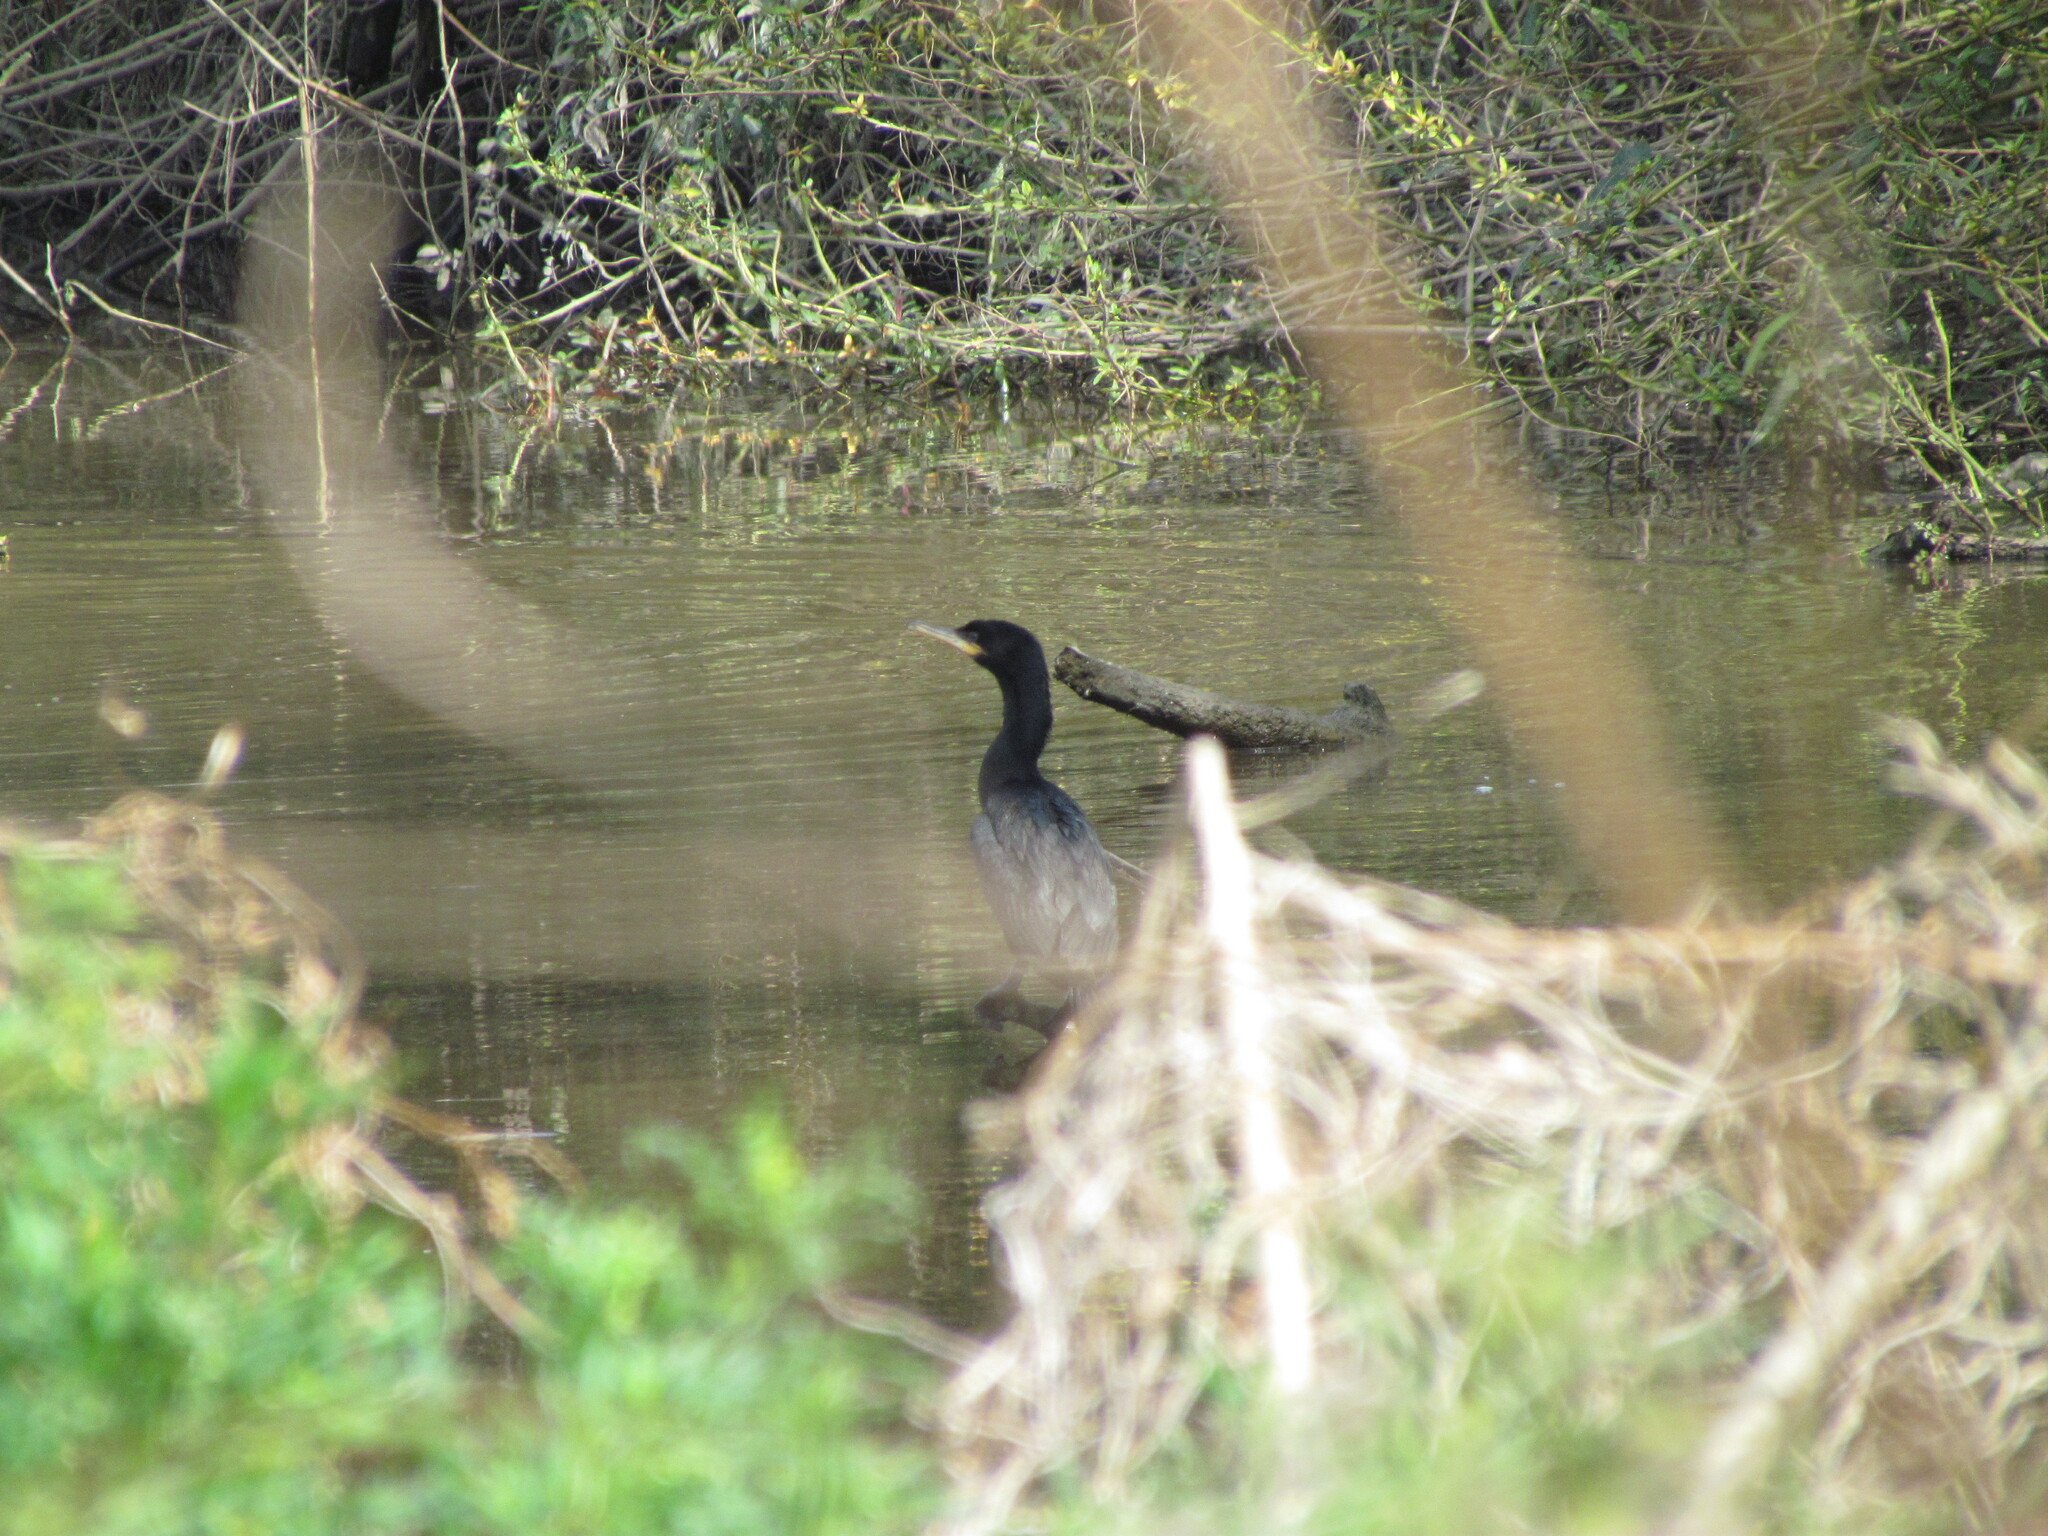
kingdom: Animalia
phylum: Chordata
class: Aves
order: Suliformes
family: Phalacrocoracidae
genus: Phalacrocorax
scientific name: Phalacrocorax brasilianus
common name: Neotropic cormorant
